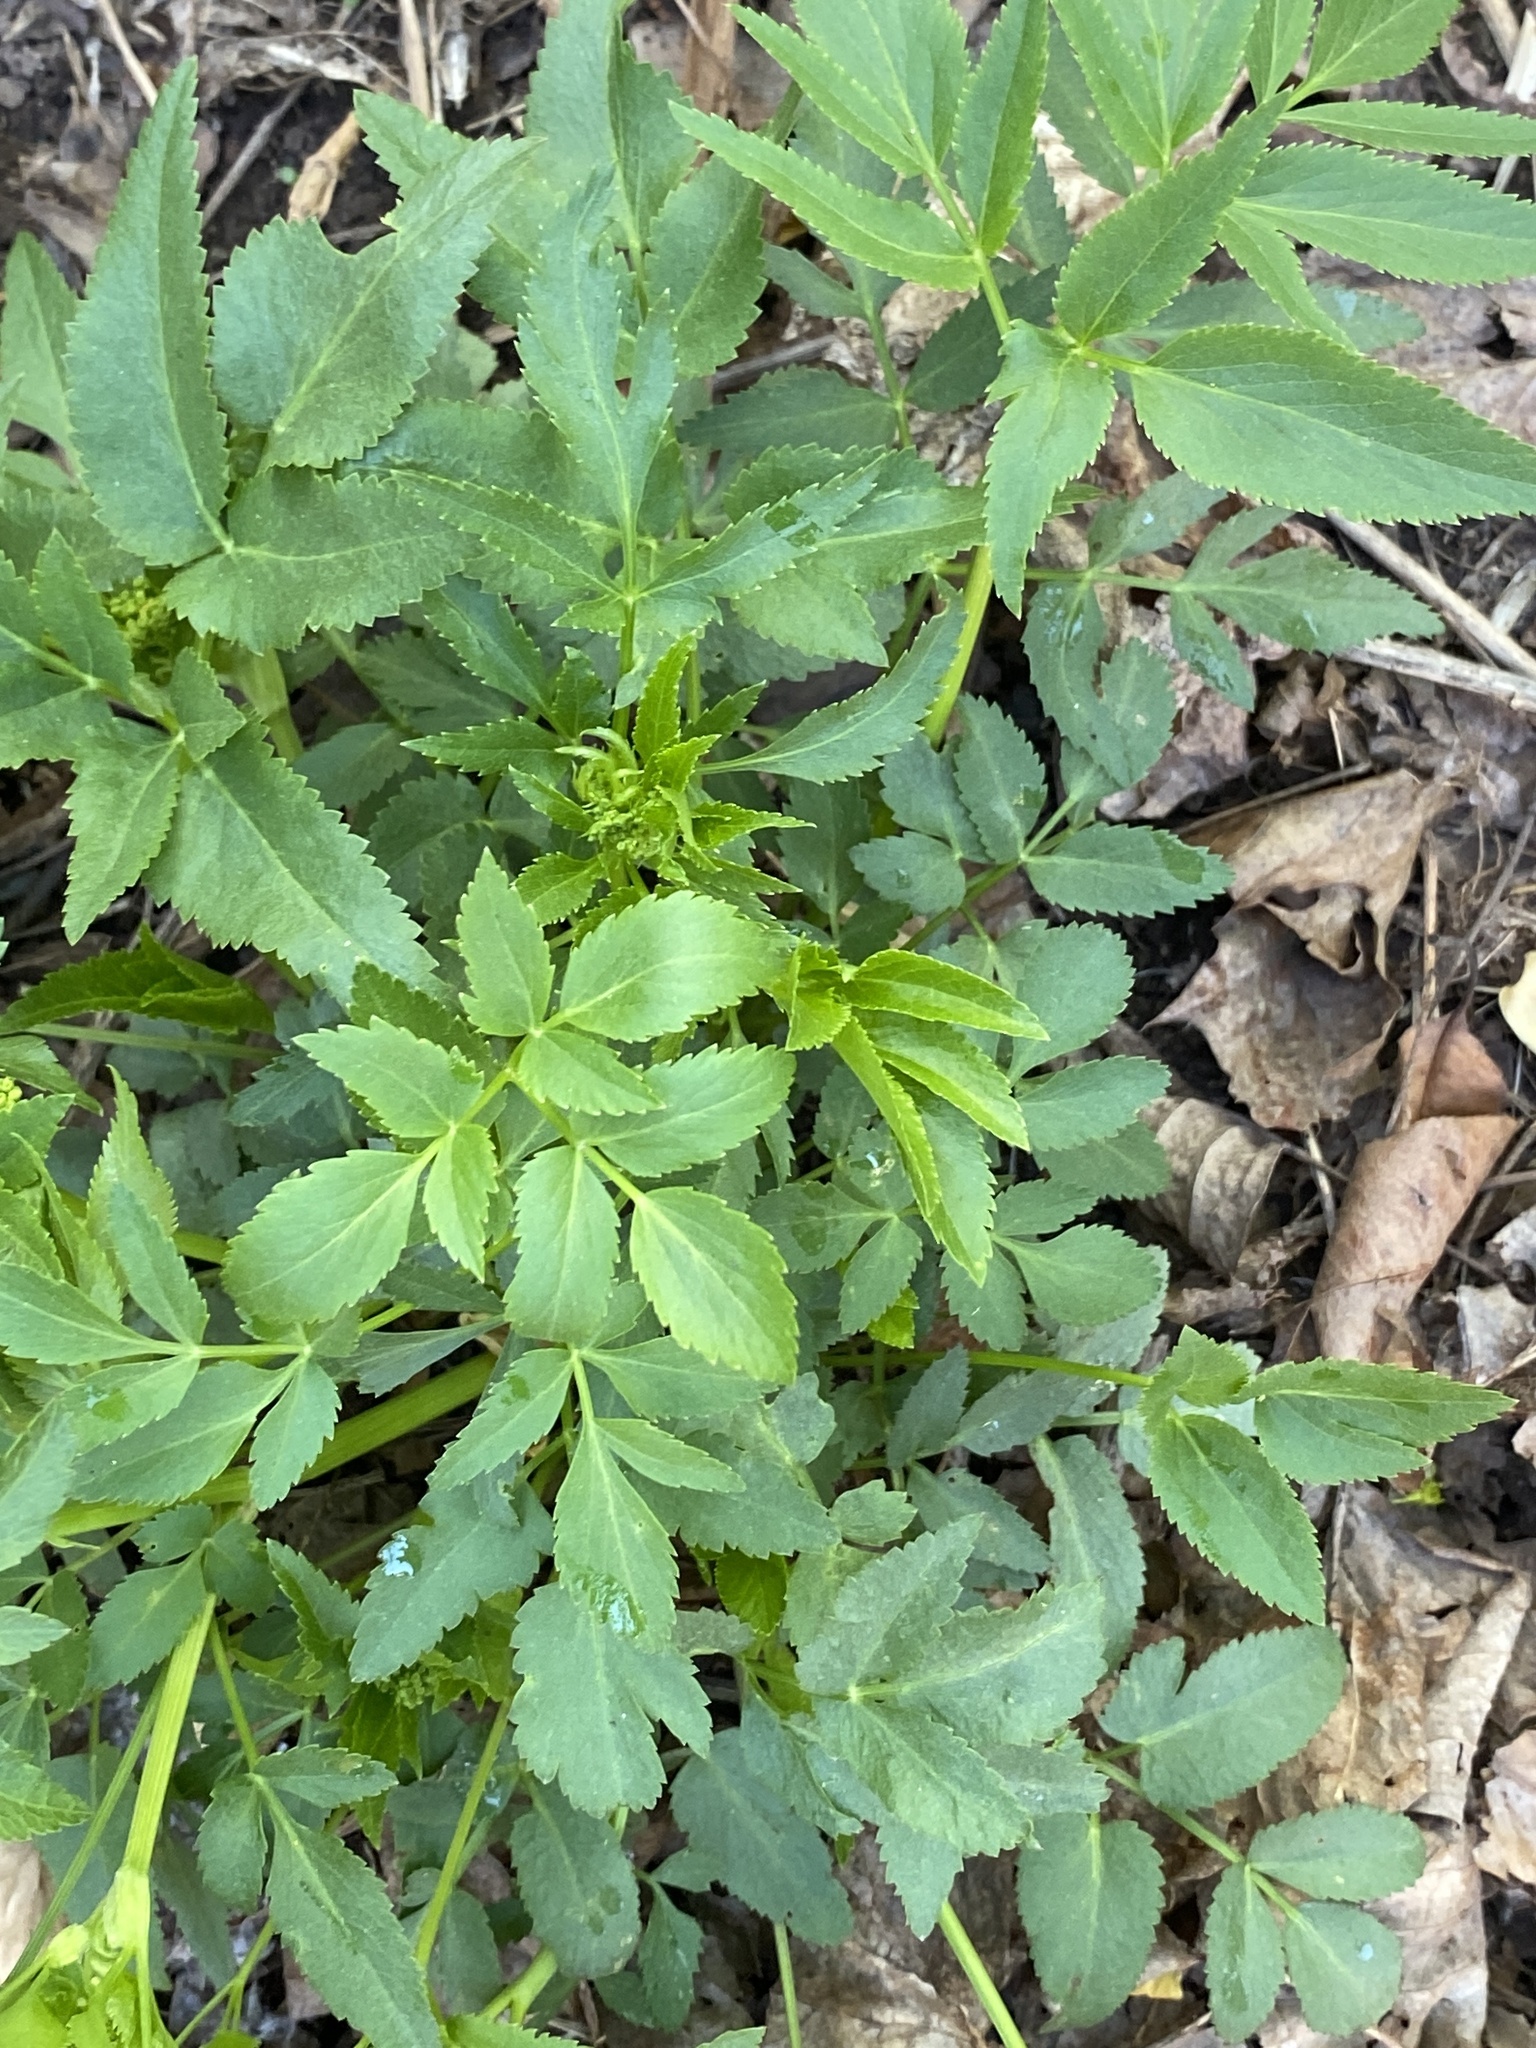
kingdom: Plantae
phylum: Tracheophyta
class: Magnoliopsida
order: Apiales
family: Apiaceae
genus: Zizia
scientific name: Zizia aurea
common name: Golden alexanders
